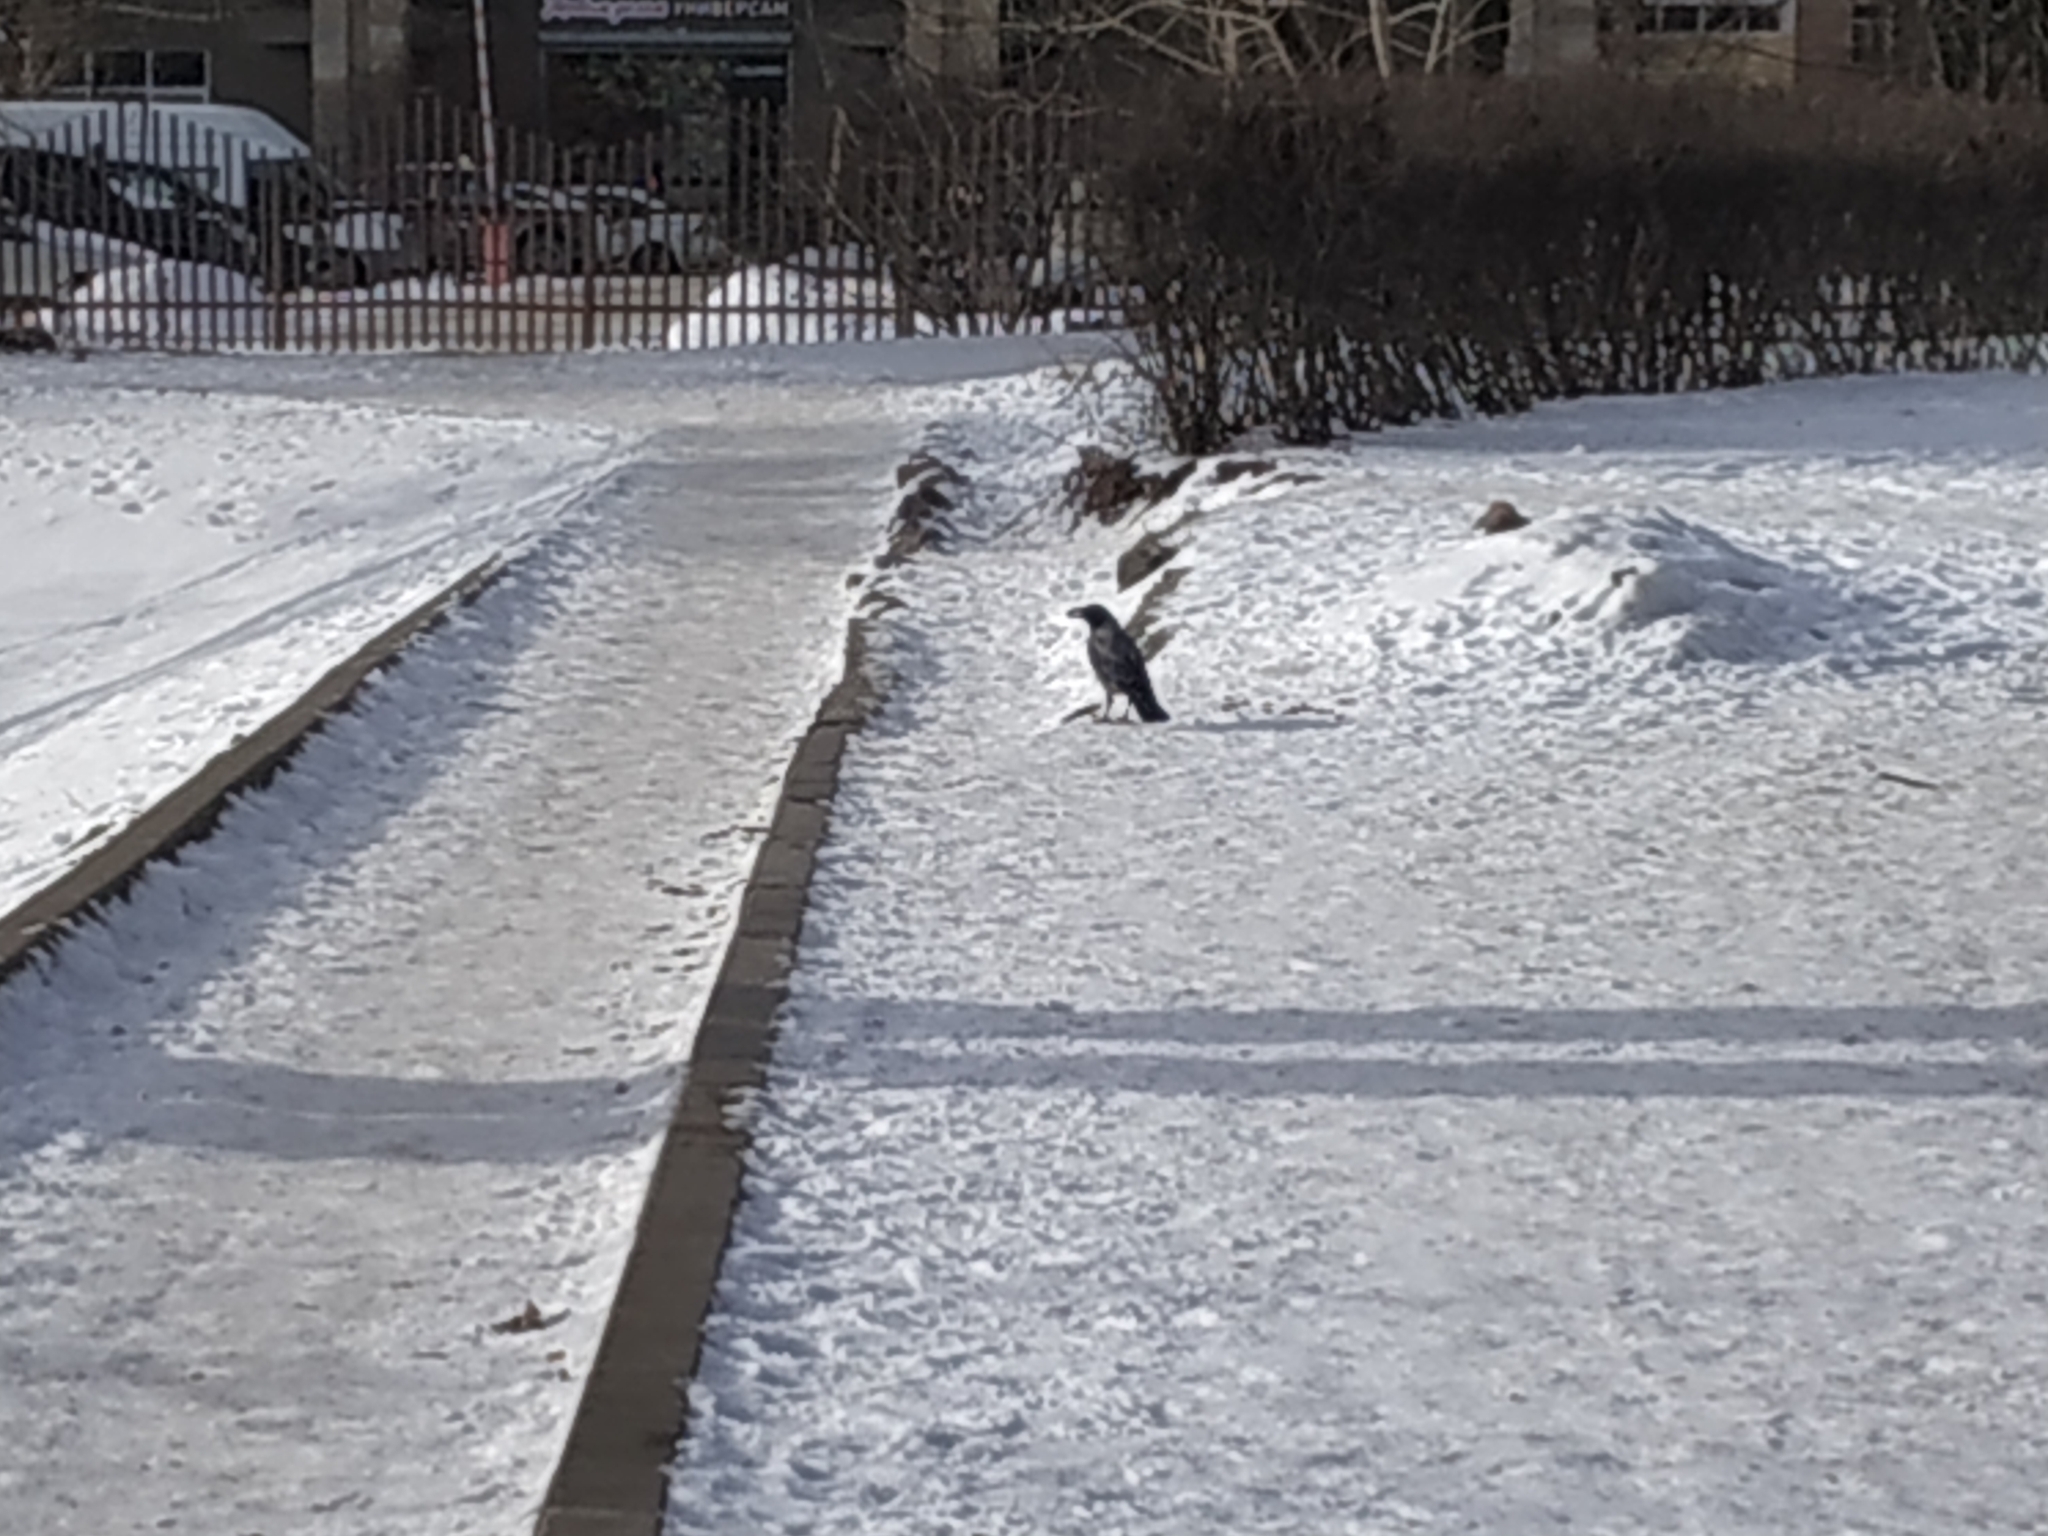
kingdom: Animalia
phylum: Chordata
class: Aves
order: Passeriformes
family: Corvidae
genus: Corvus
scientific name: Corvus cornix
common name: Hooded crow
